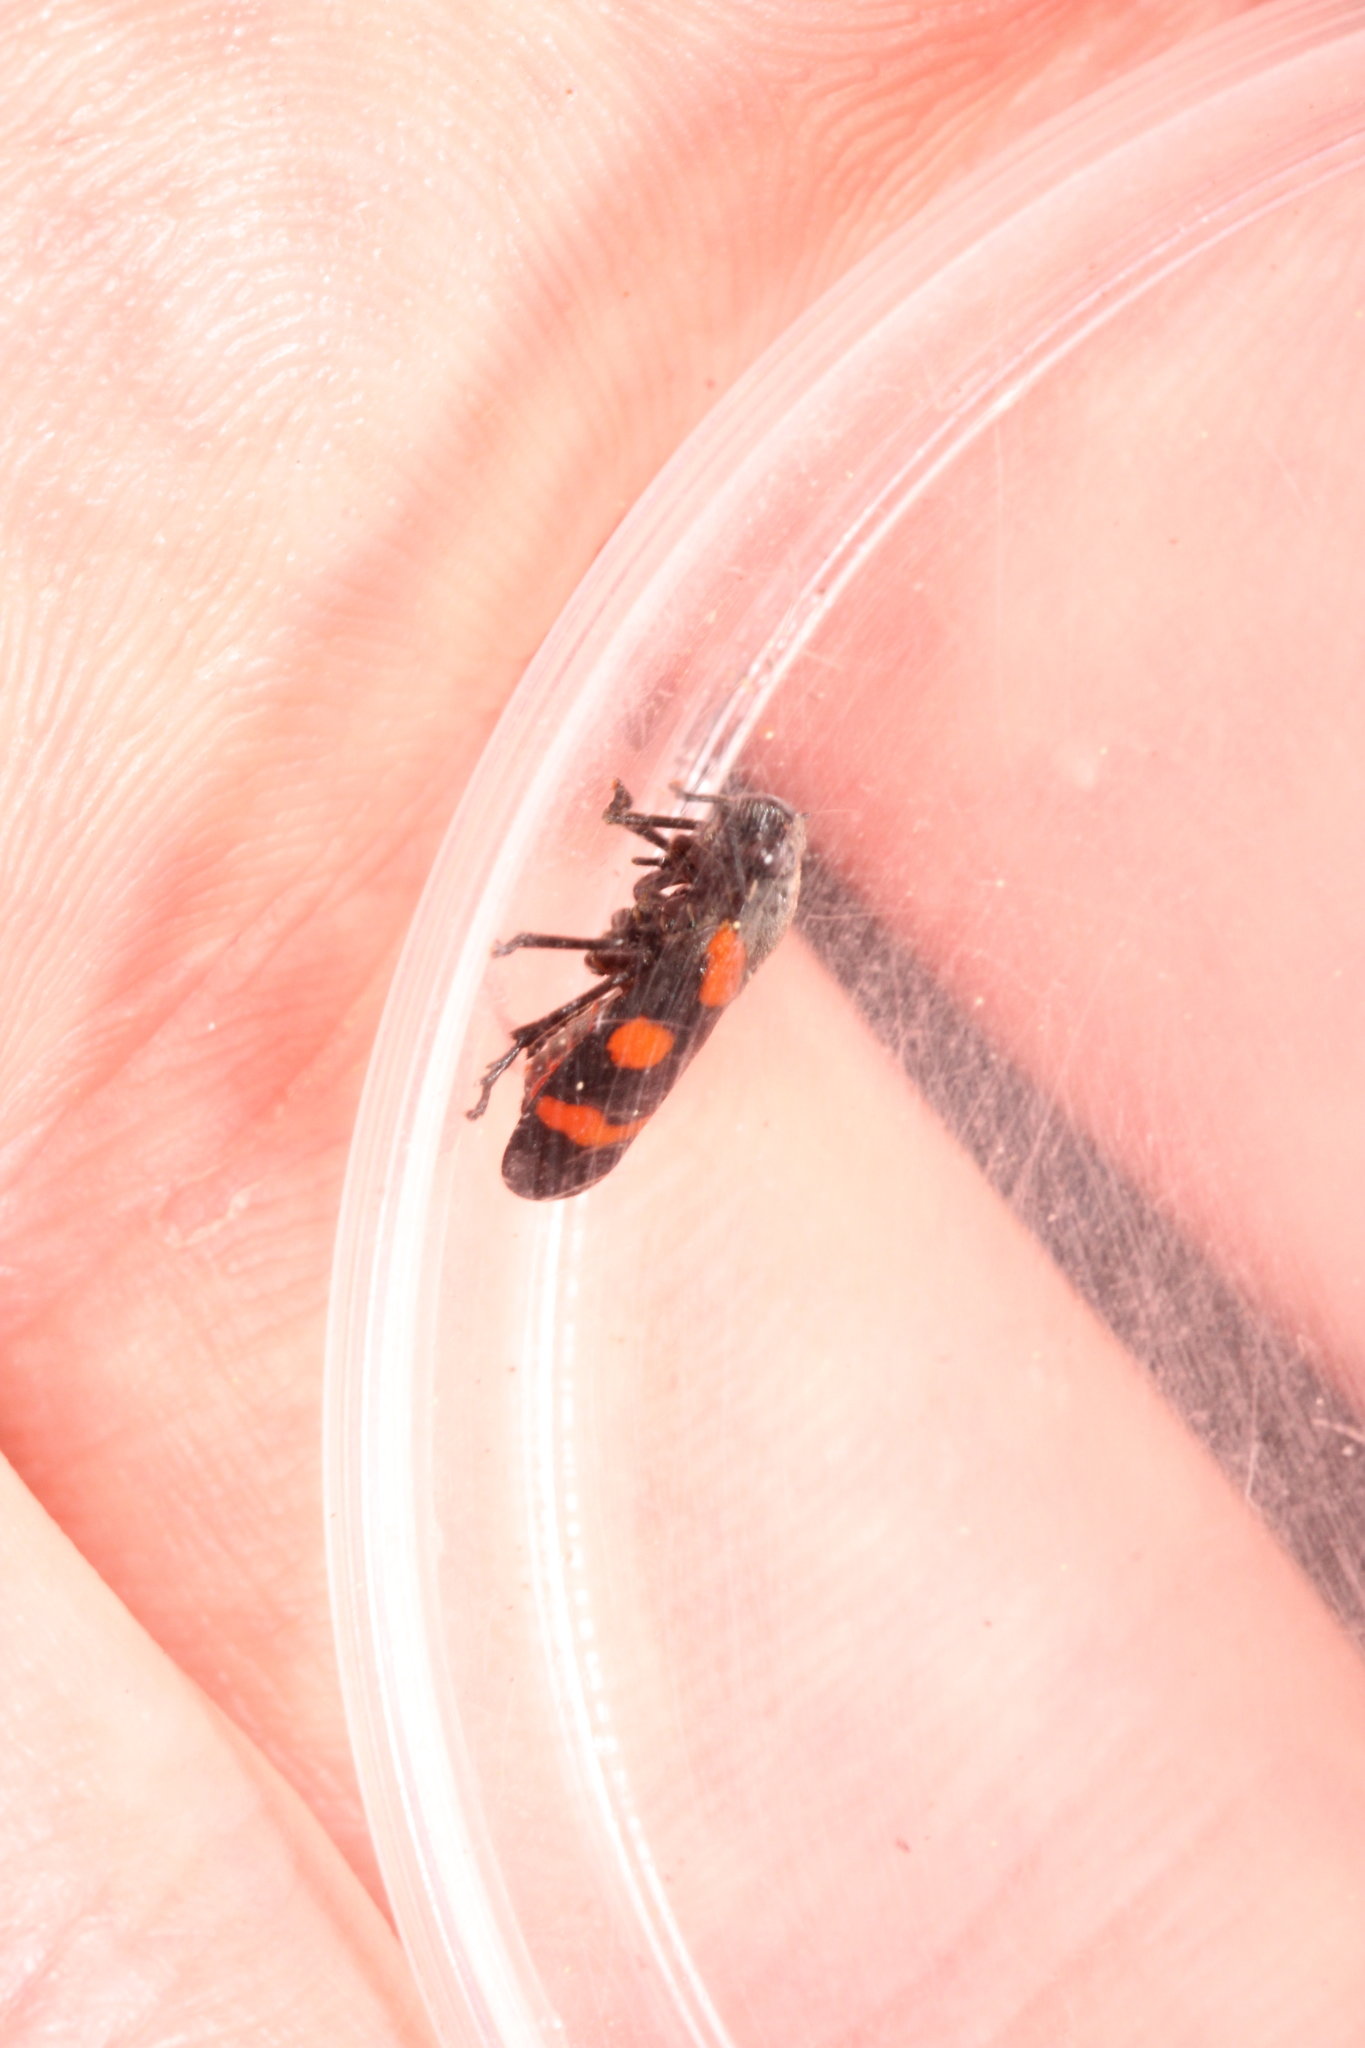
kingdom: Animalia
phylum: Arthropoda
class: Insecta
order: Hemiptera
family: Cercopidae
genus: Cercopis
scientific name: Cercopis sanguinolenta
